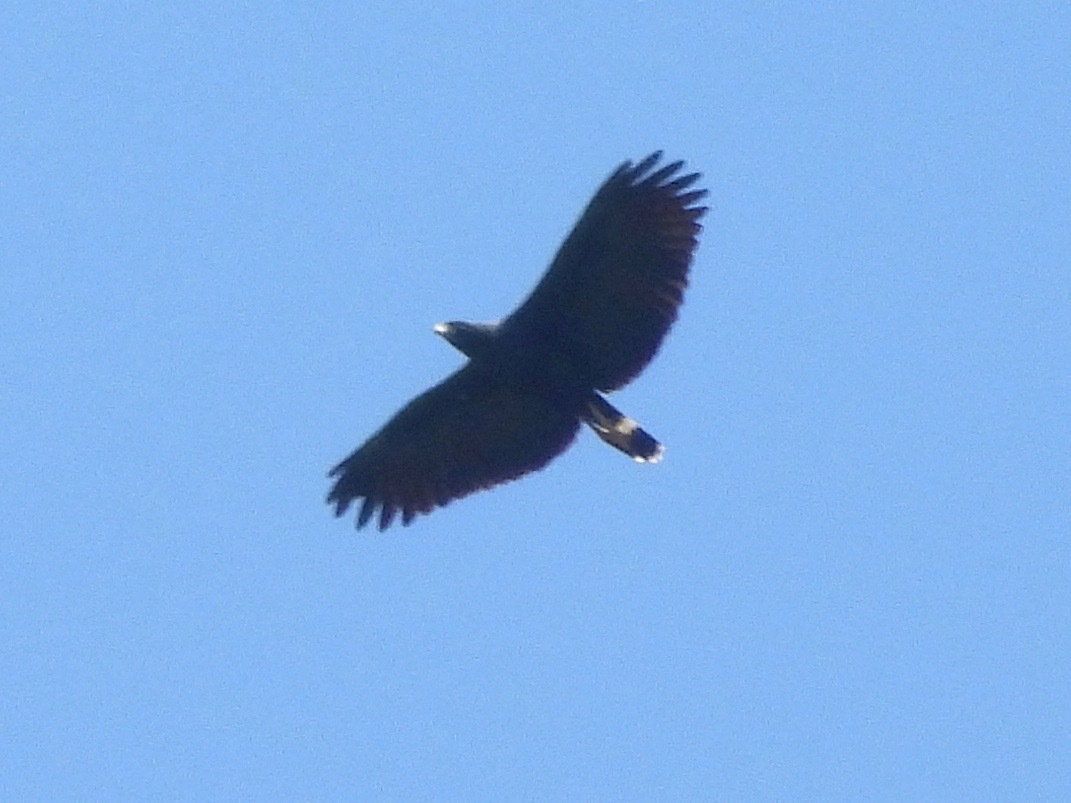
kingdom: Animalia
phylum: Chordata
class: Aves
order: Accipitriformes
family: Accipitridae
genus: Buteogallus
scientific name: Buteogallus urubitinga
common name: Great black hawk
